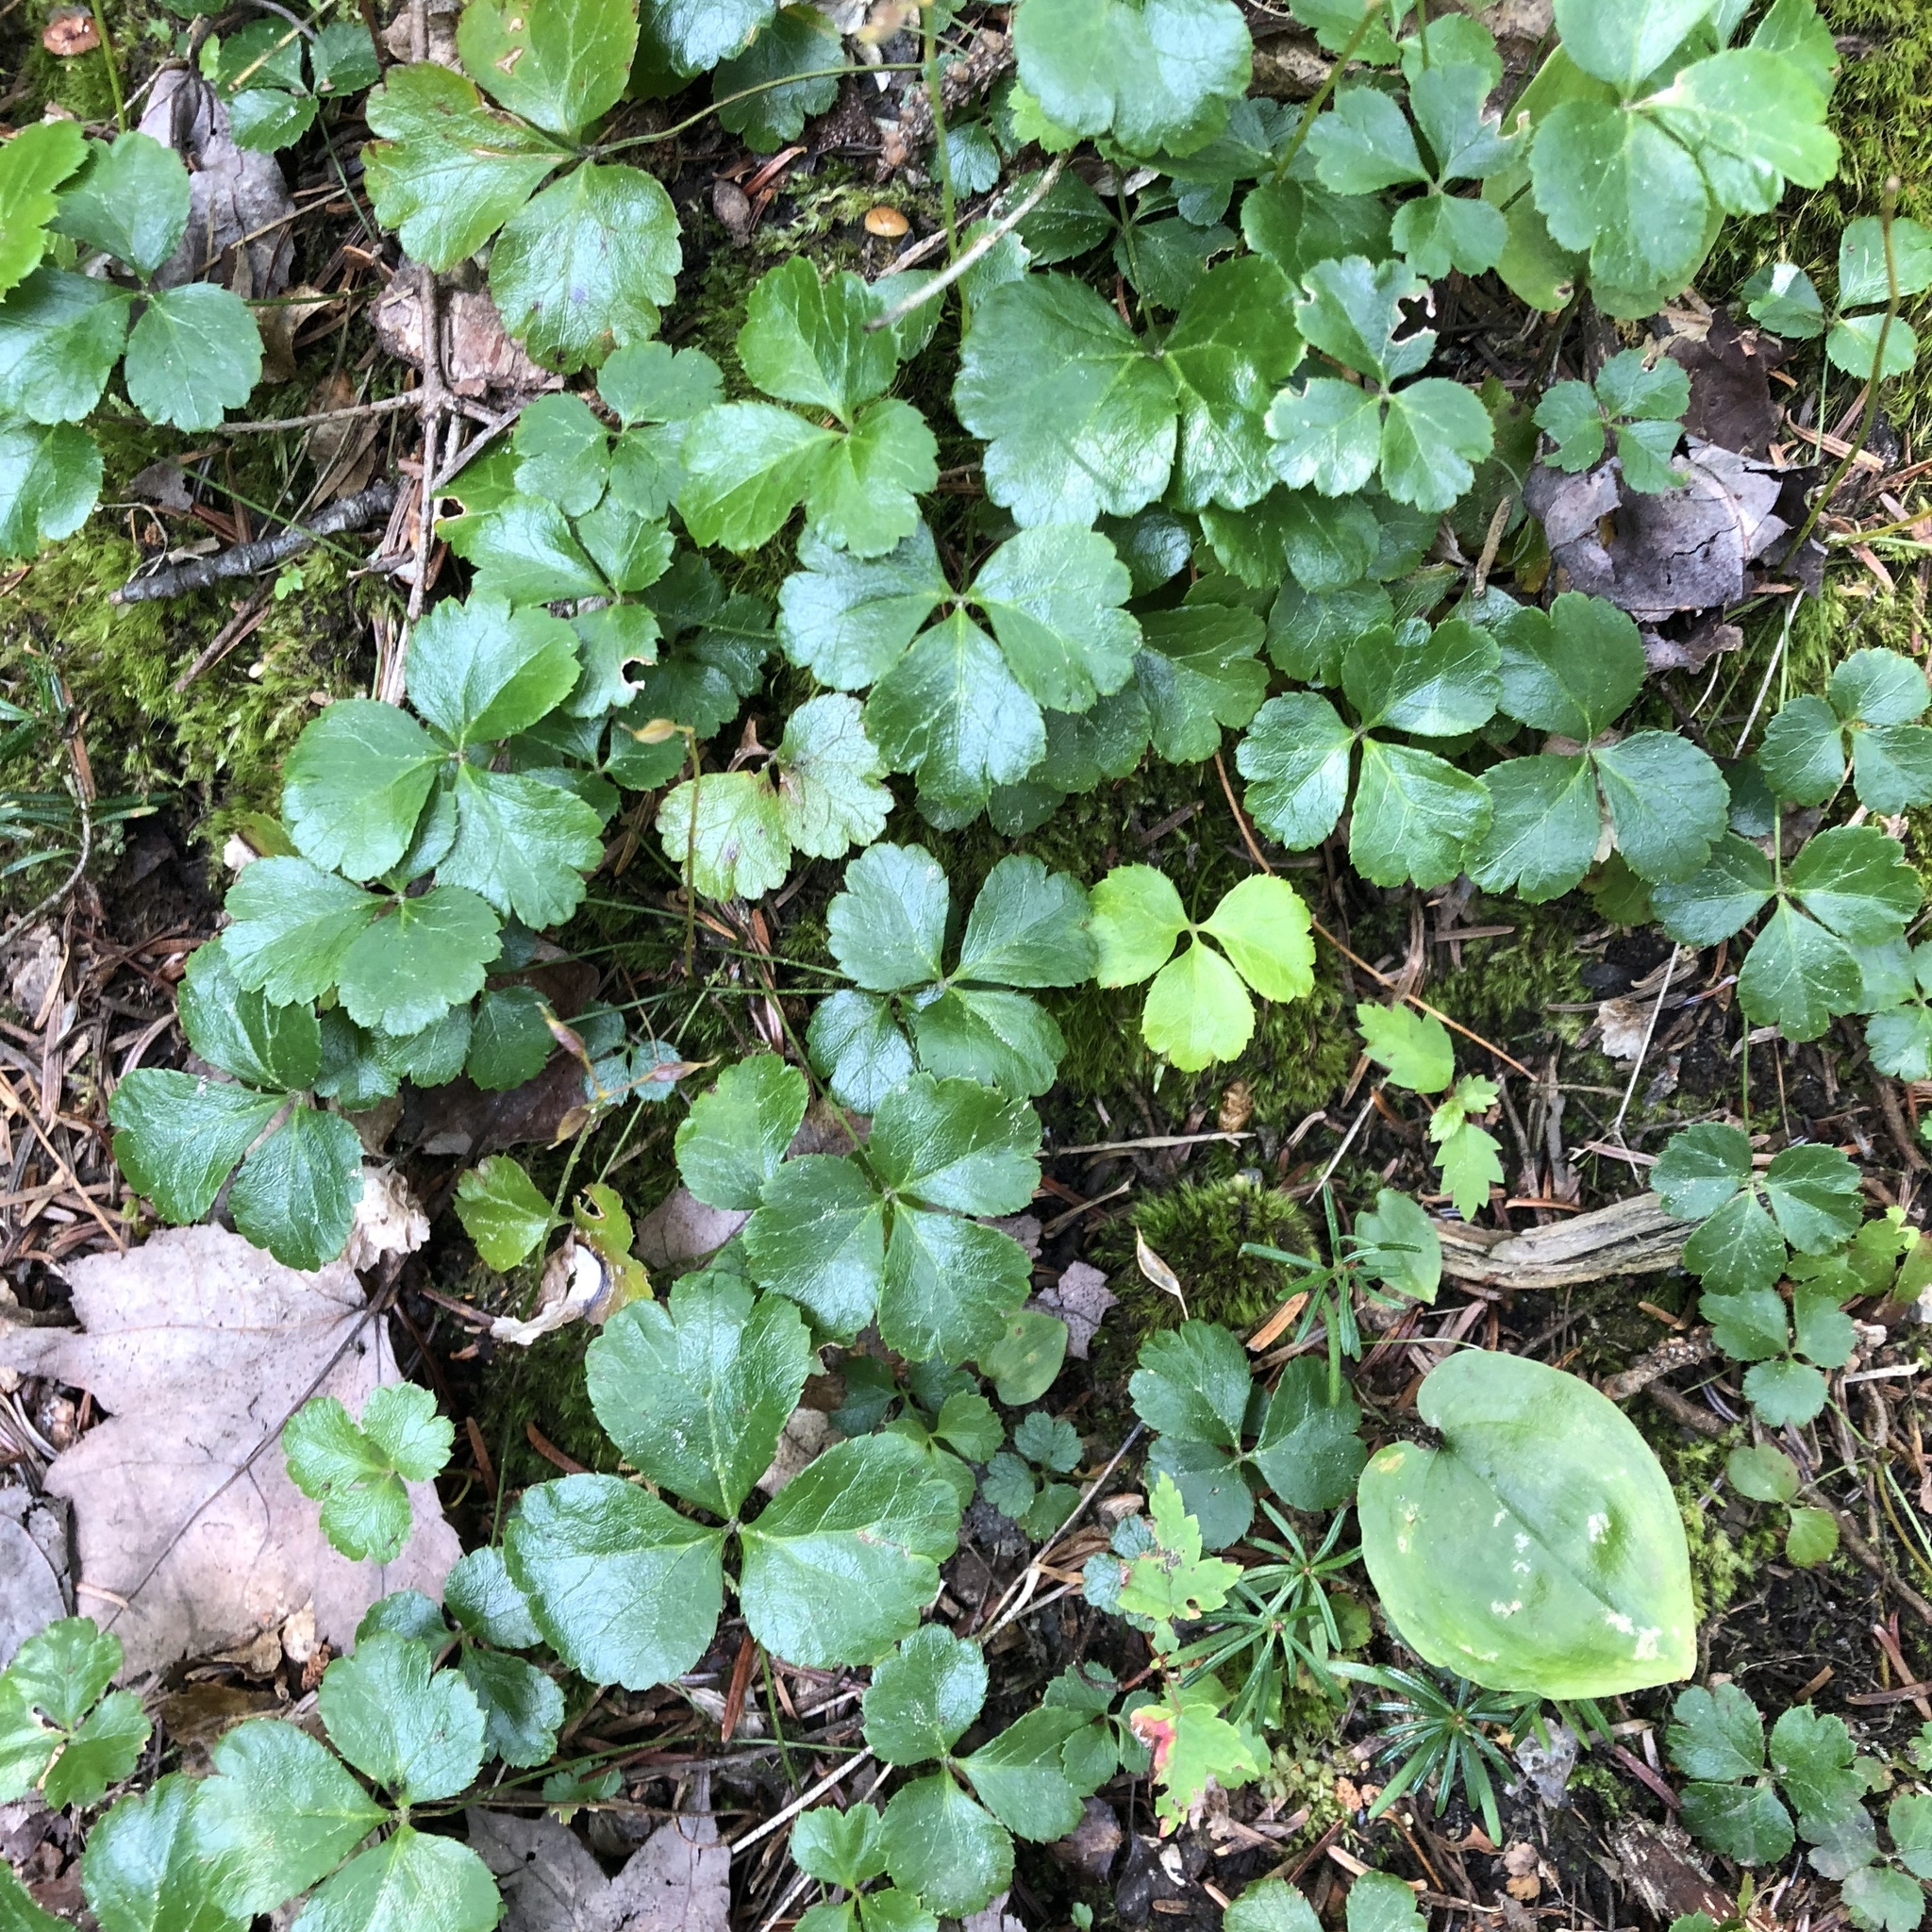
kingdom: Plantae
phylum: Tracheophyta
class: Magnoliopsida
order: Ranunculales
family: Ranunculaceae
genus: Coptis
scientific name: Coptis trifolia
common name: Canker-root
